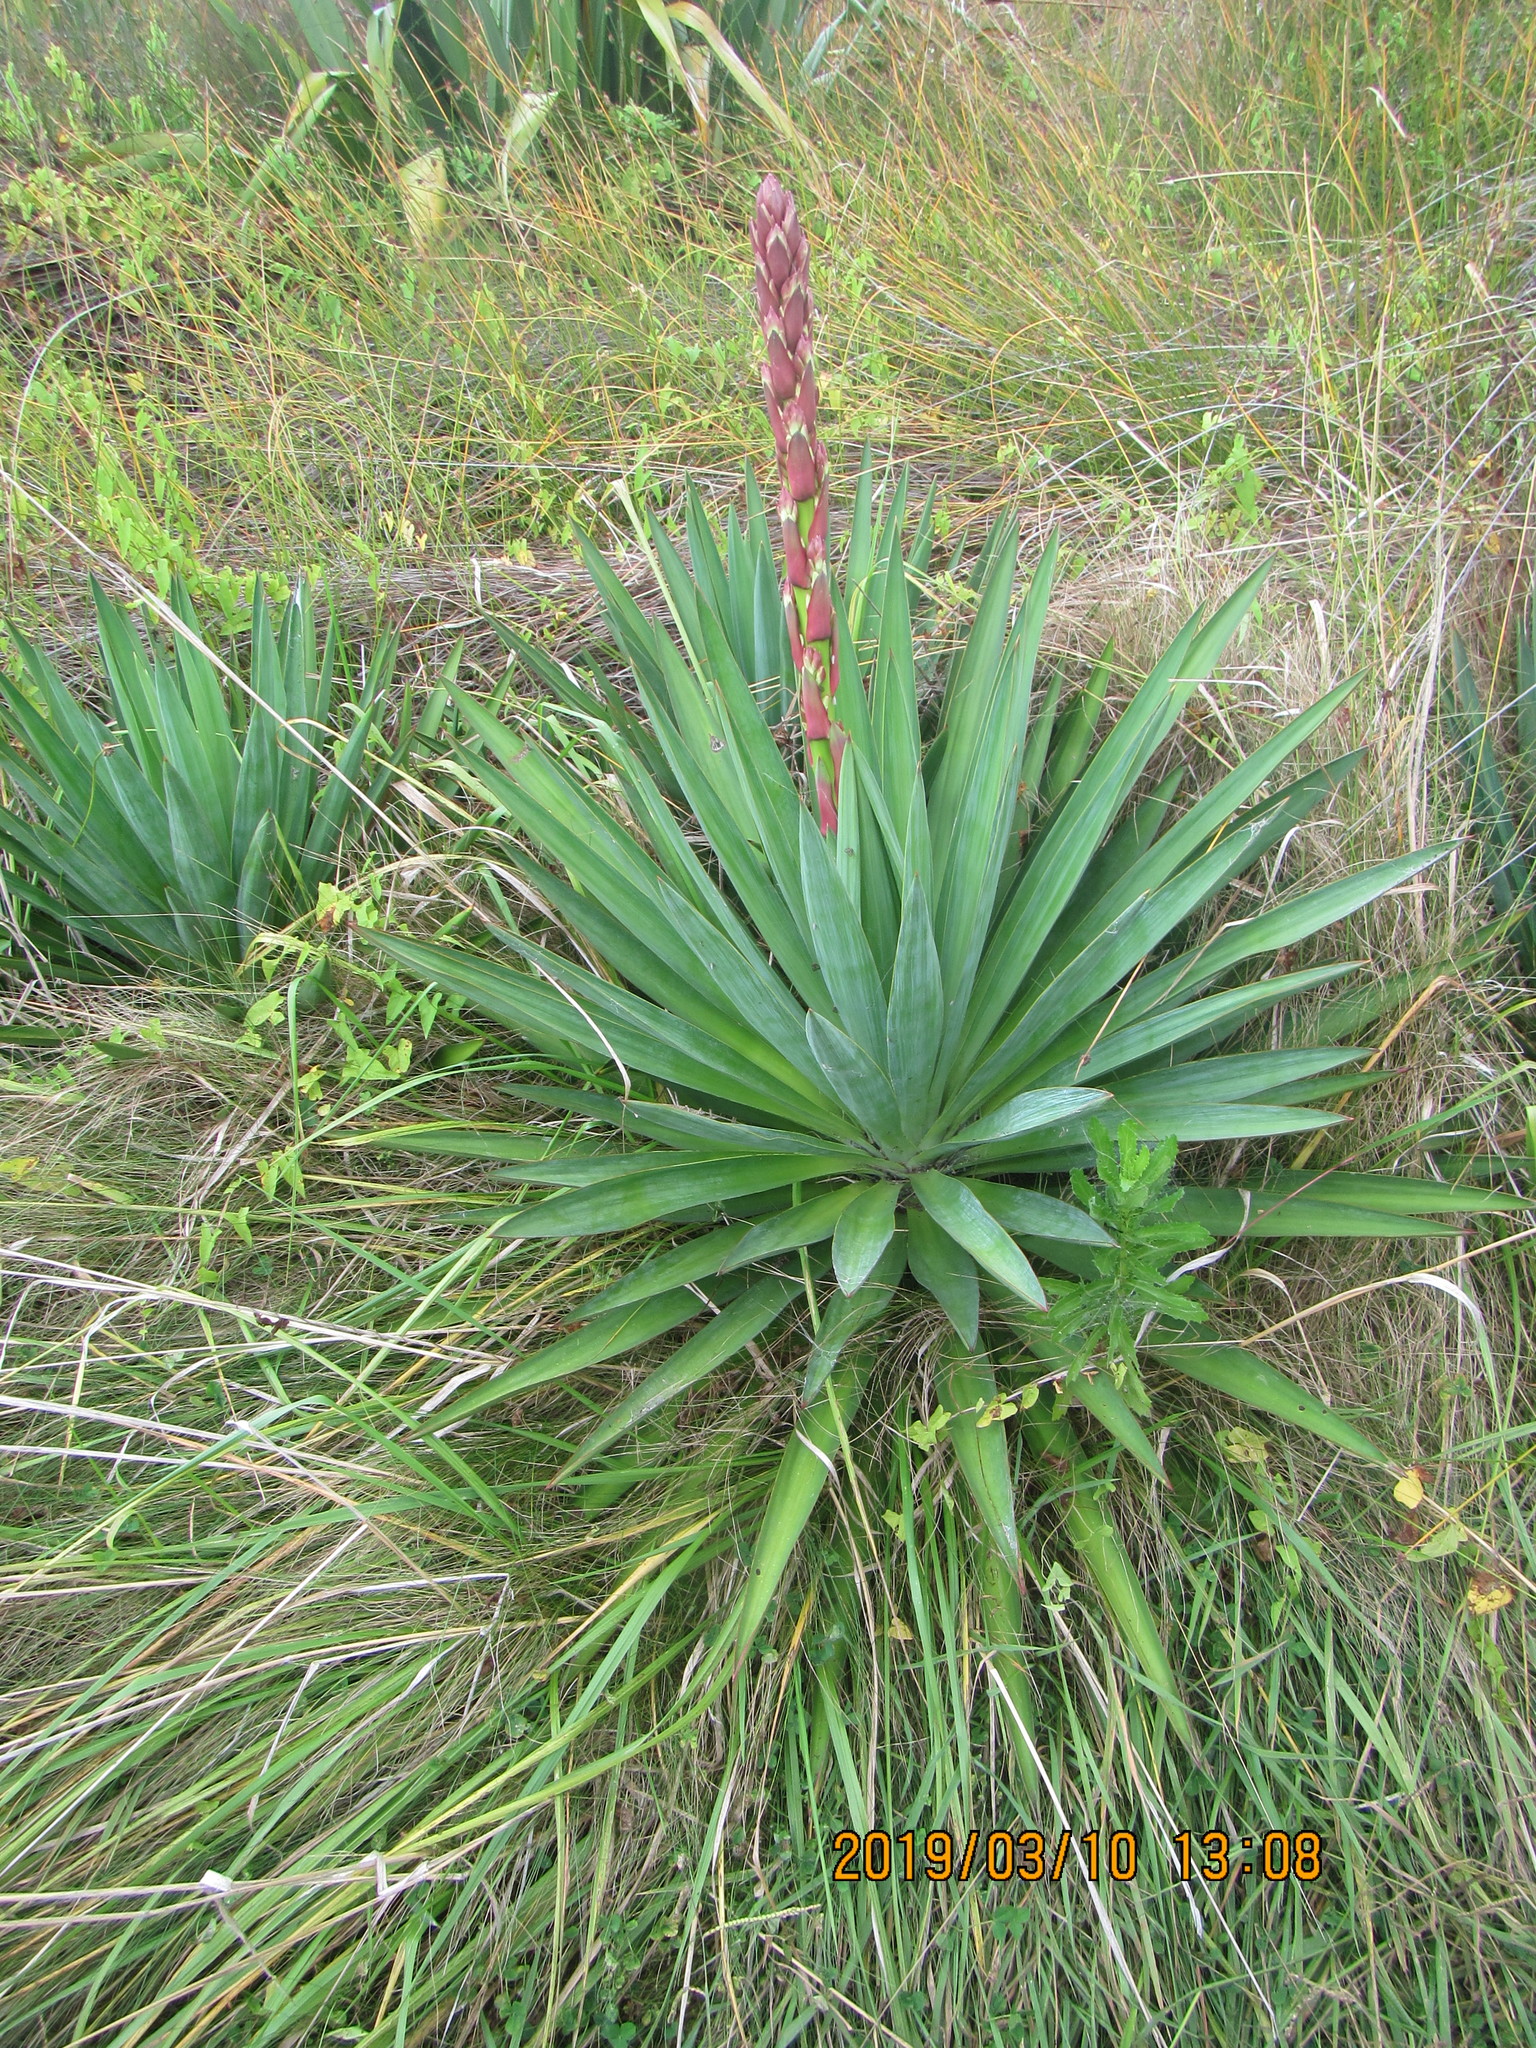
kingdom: Plantae
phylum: Tracheophyta
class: Liliopsida
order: Asparagales
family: Asparagaceae
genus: Yucca
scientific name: Yucca gloriosa
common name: Spanish-dagger
